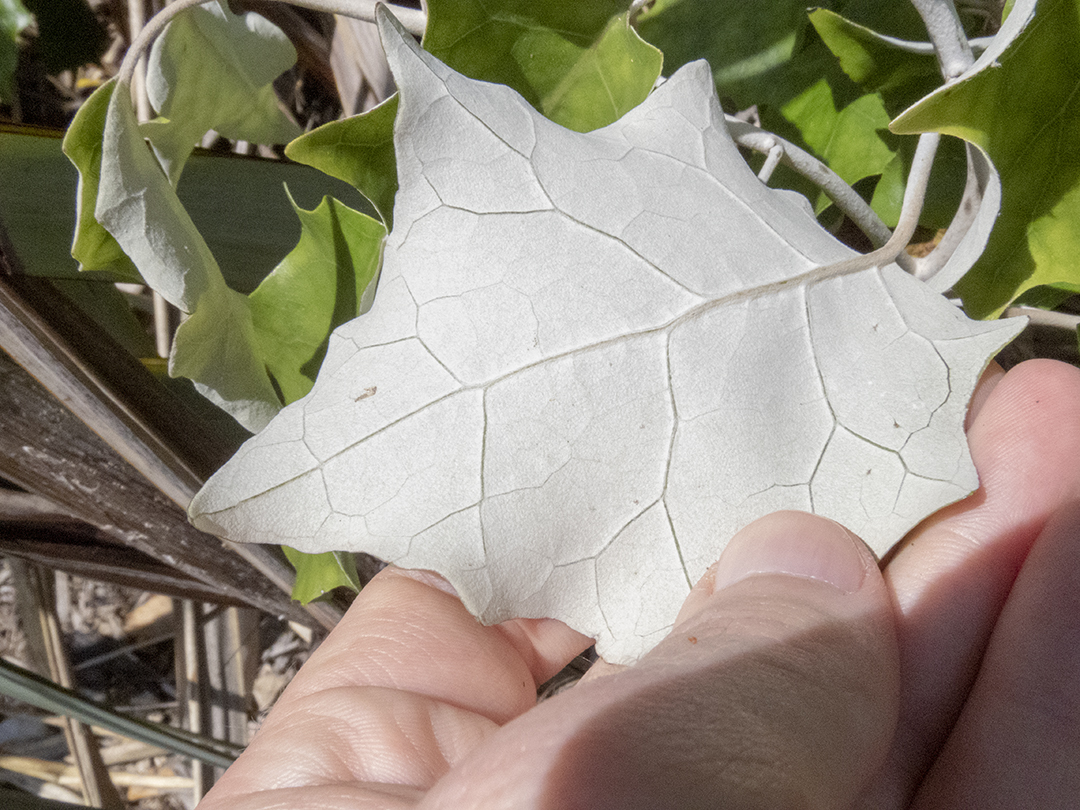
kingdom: Plantae
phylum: Tracheophyta
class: Magnoliopsida
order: Asterales
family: Asteraceae
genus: Brachyglottis
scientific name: Brachyglottis repanda
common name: Hedge ragwort
